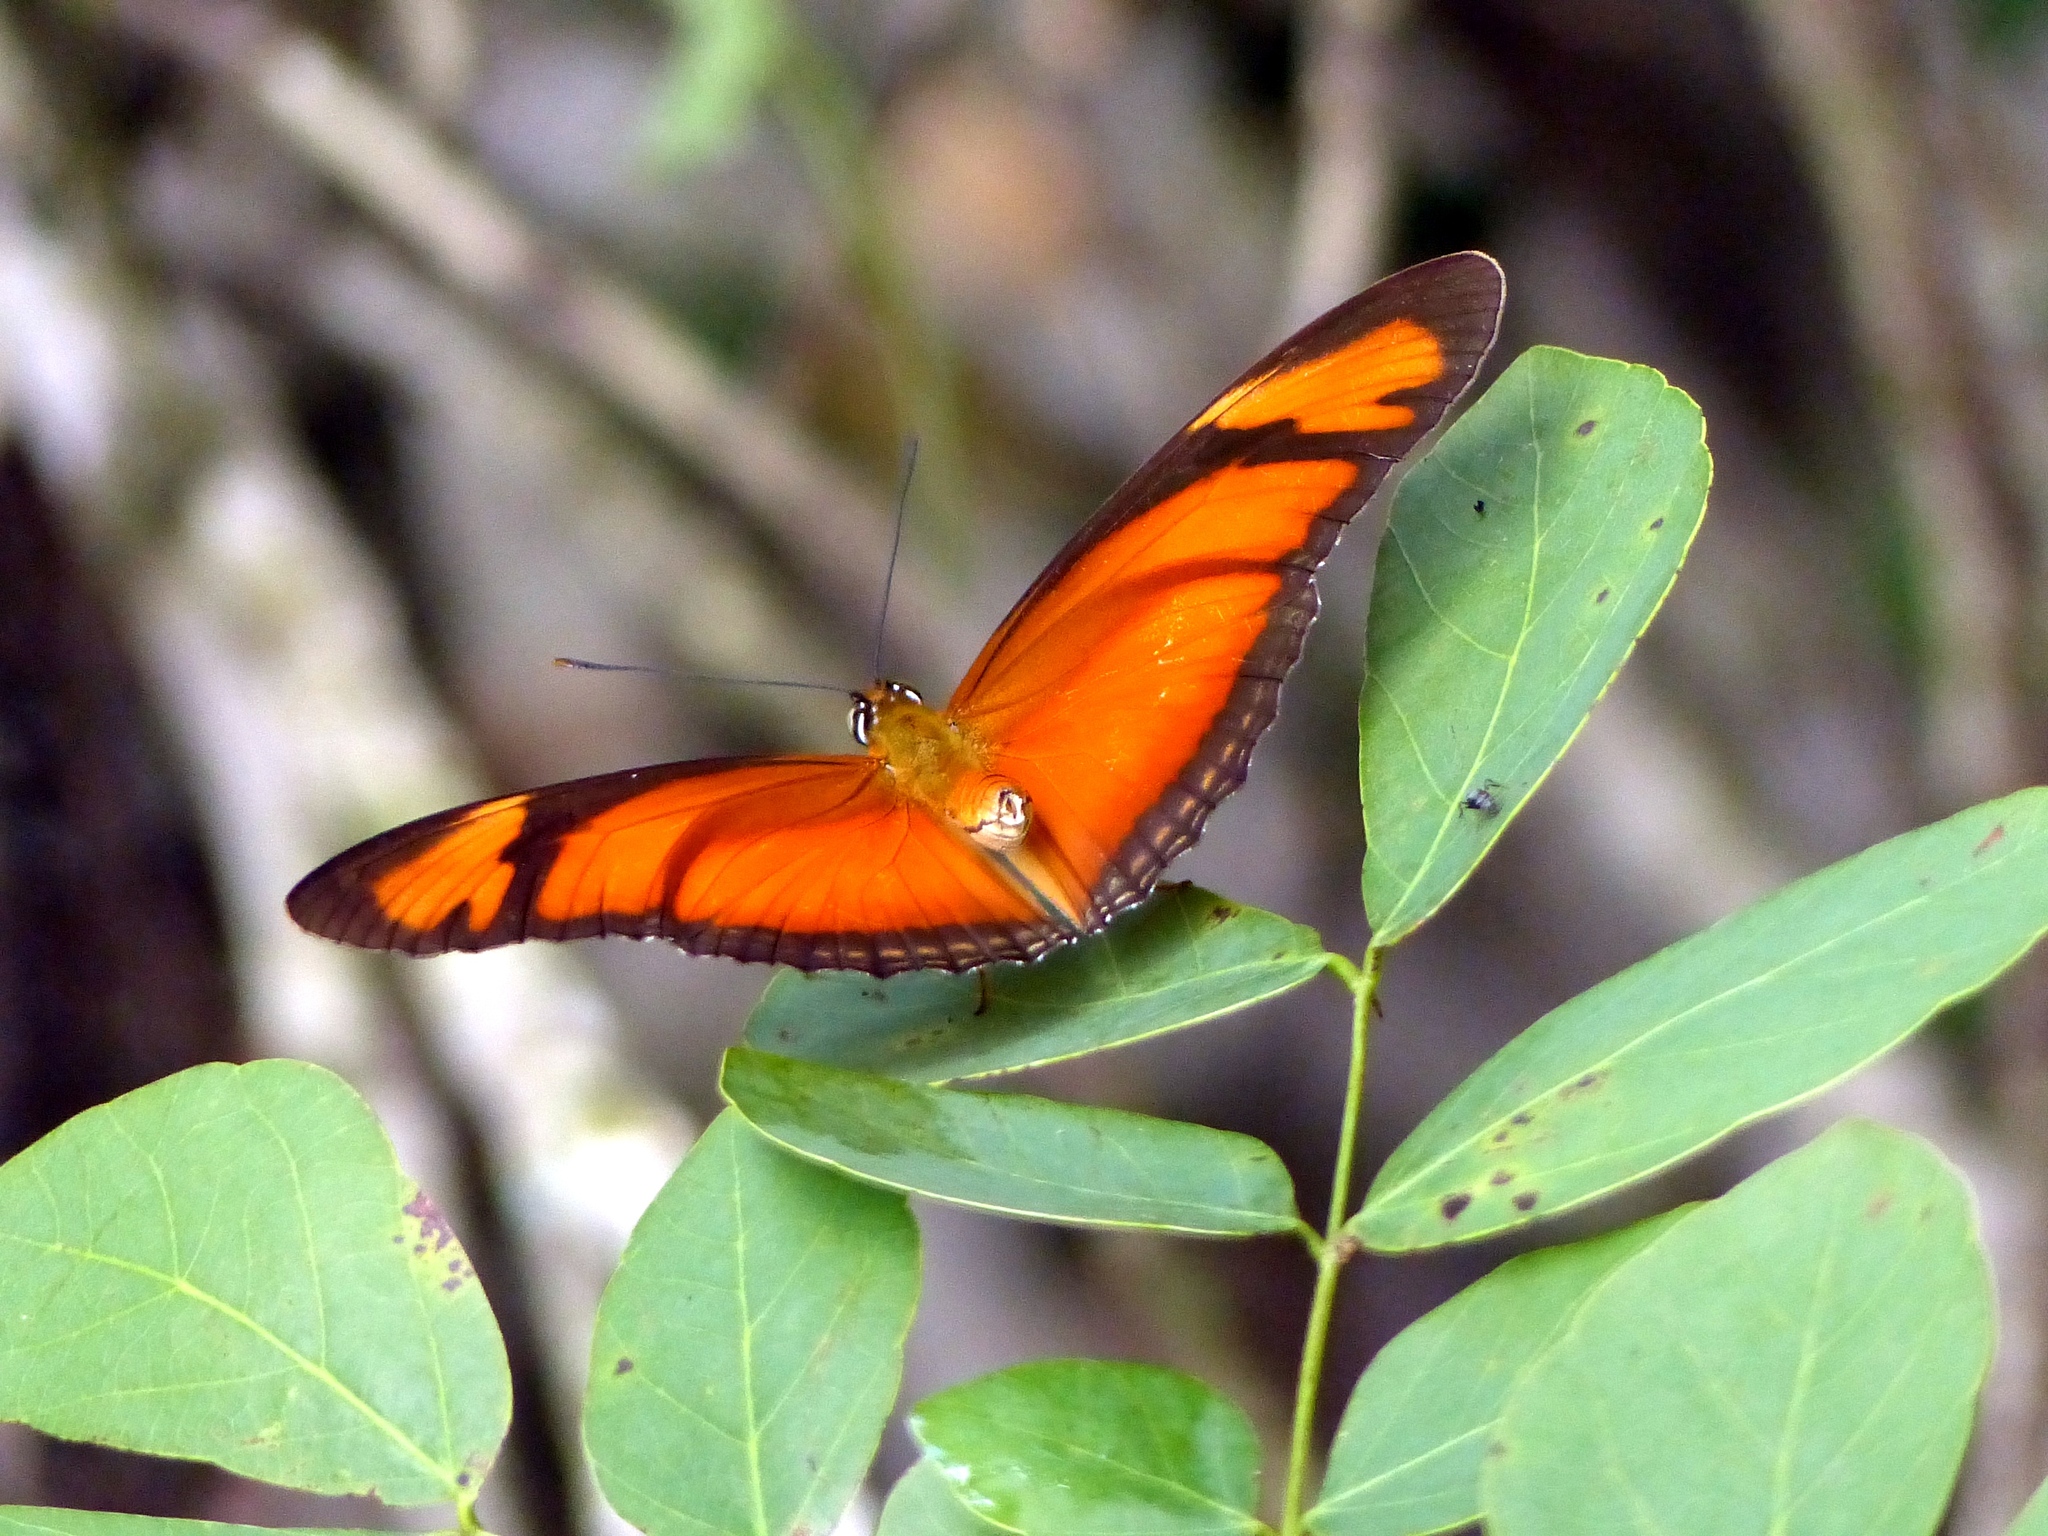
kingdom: Animalia
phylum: Arthropoda
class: Insecta
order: Lepidoptera
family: Nymphalidae
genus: Dryas
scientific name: Dryas iulia
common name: Flambeau
